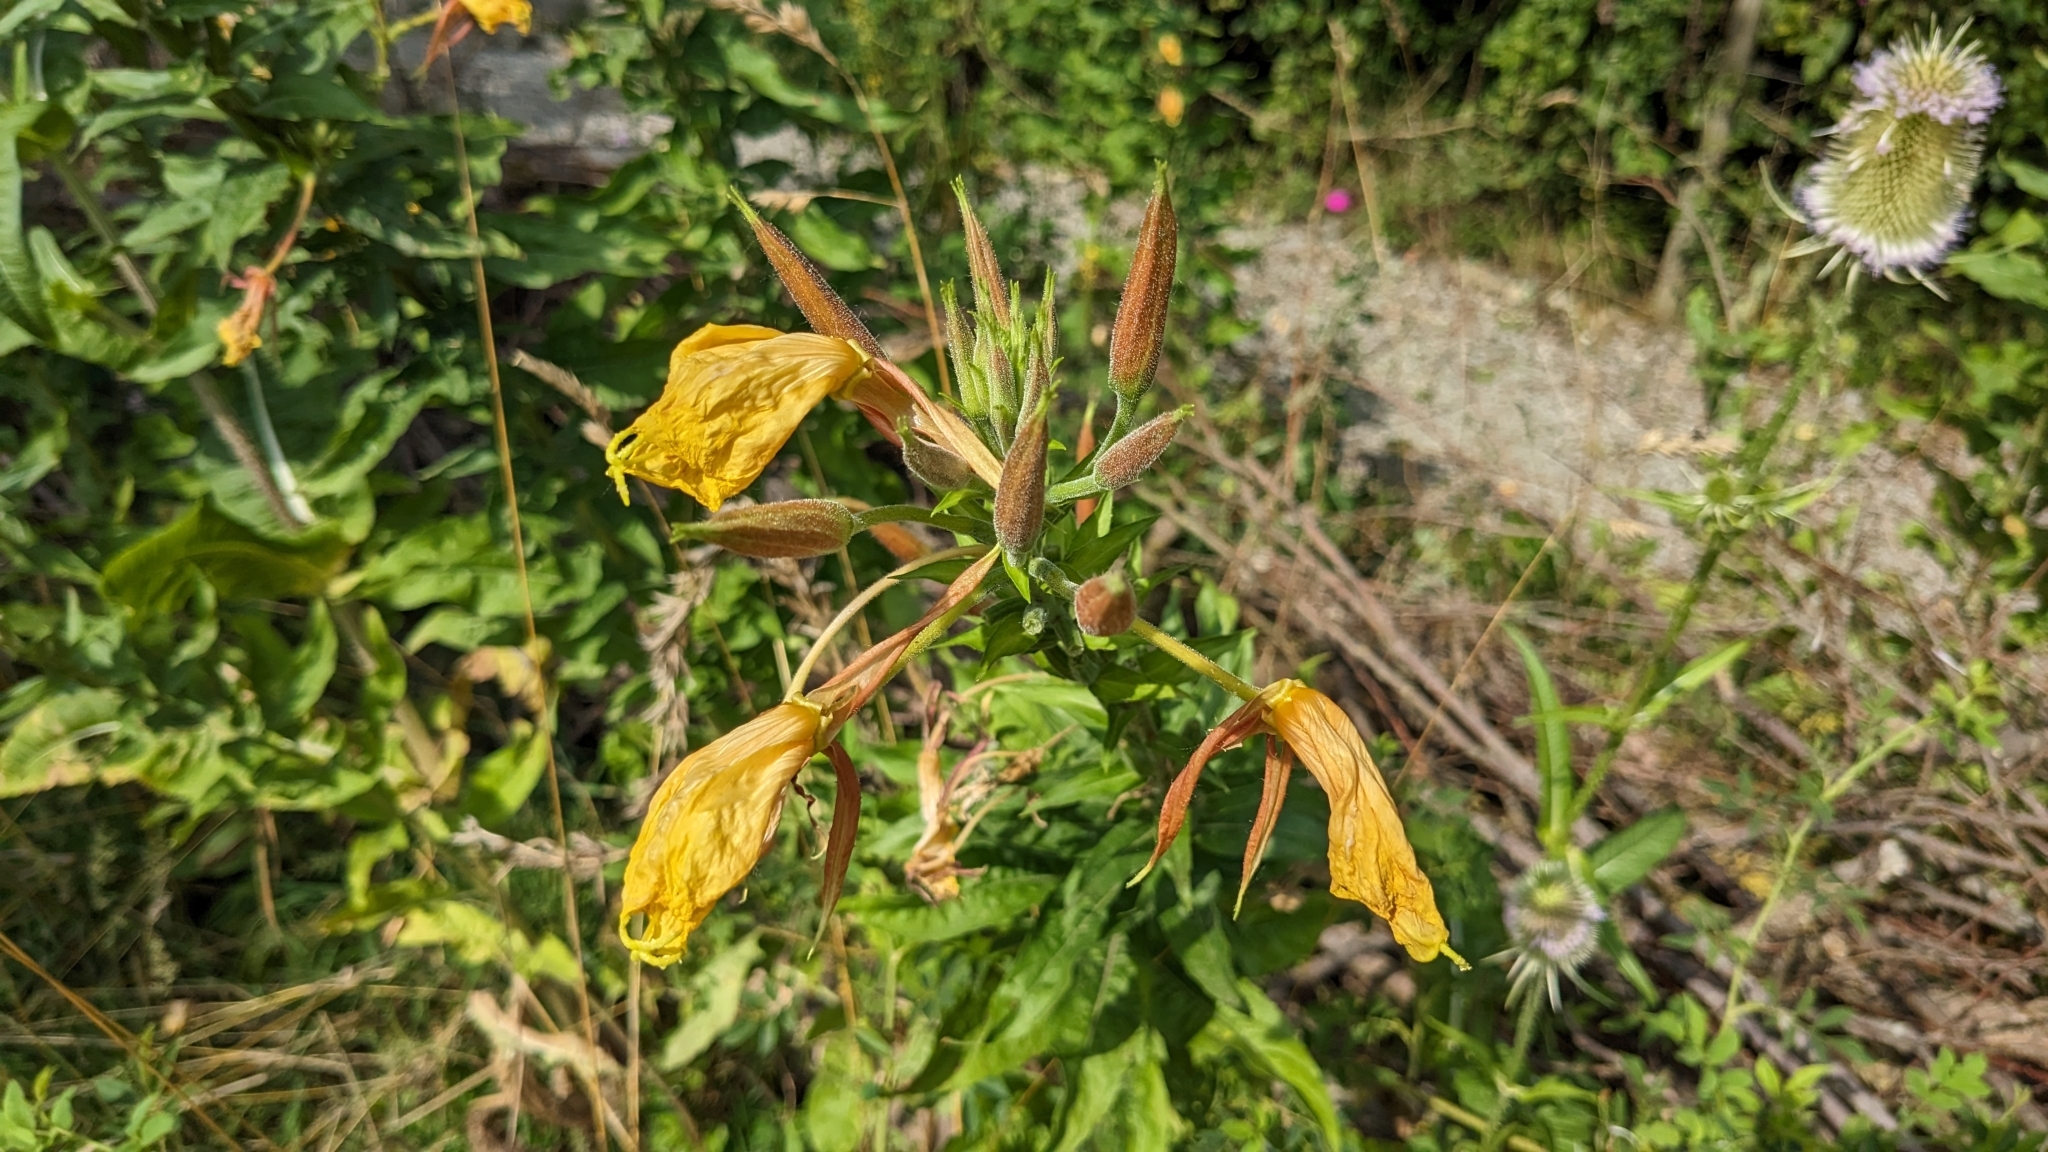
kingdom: Plantae
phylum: Tracheophyta
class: Magnoliopsida
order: Myrtales
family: Onagraceae
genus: Oenothera
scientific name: Oenothera glazioviana
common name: Large-flowered evening-primrose
